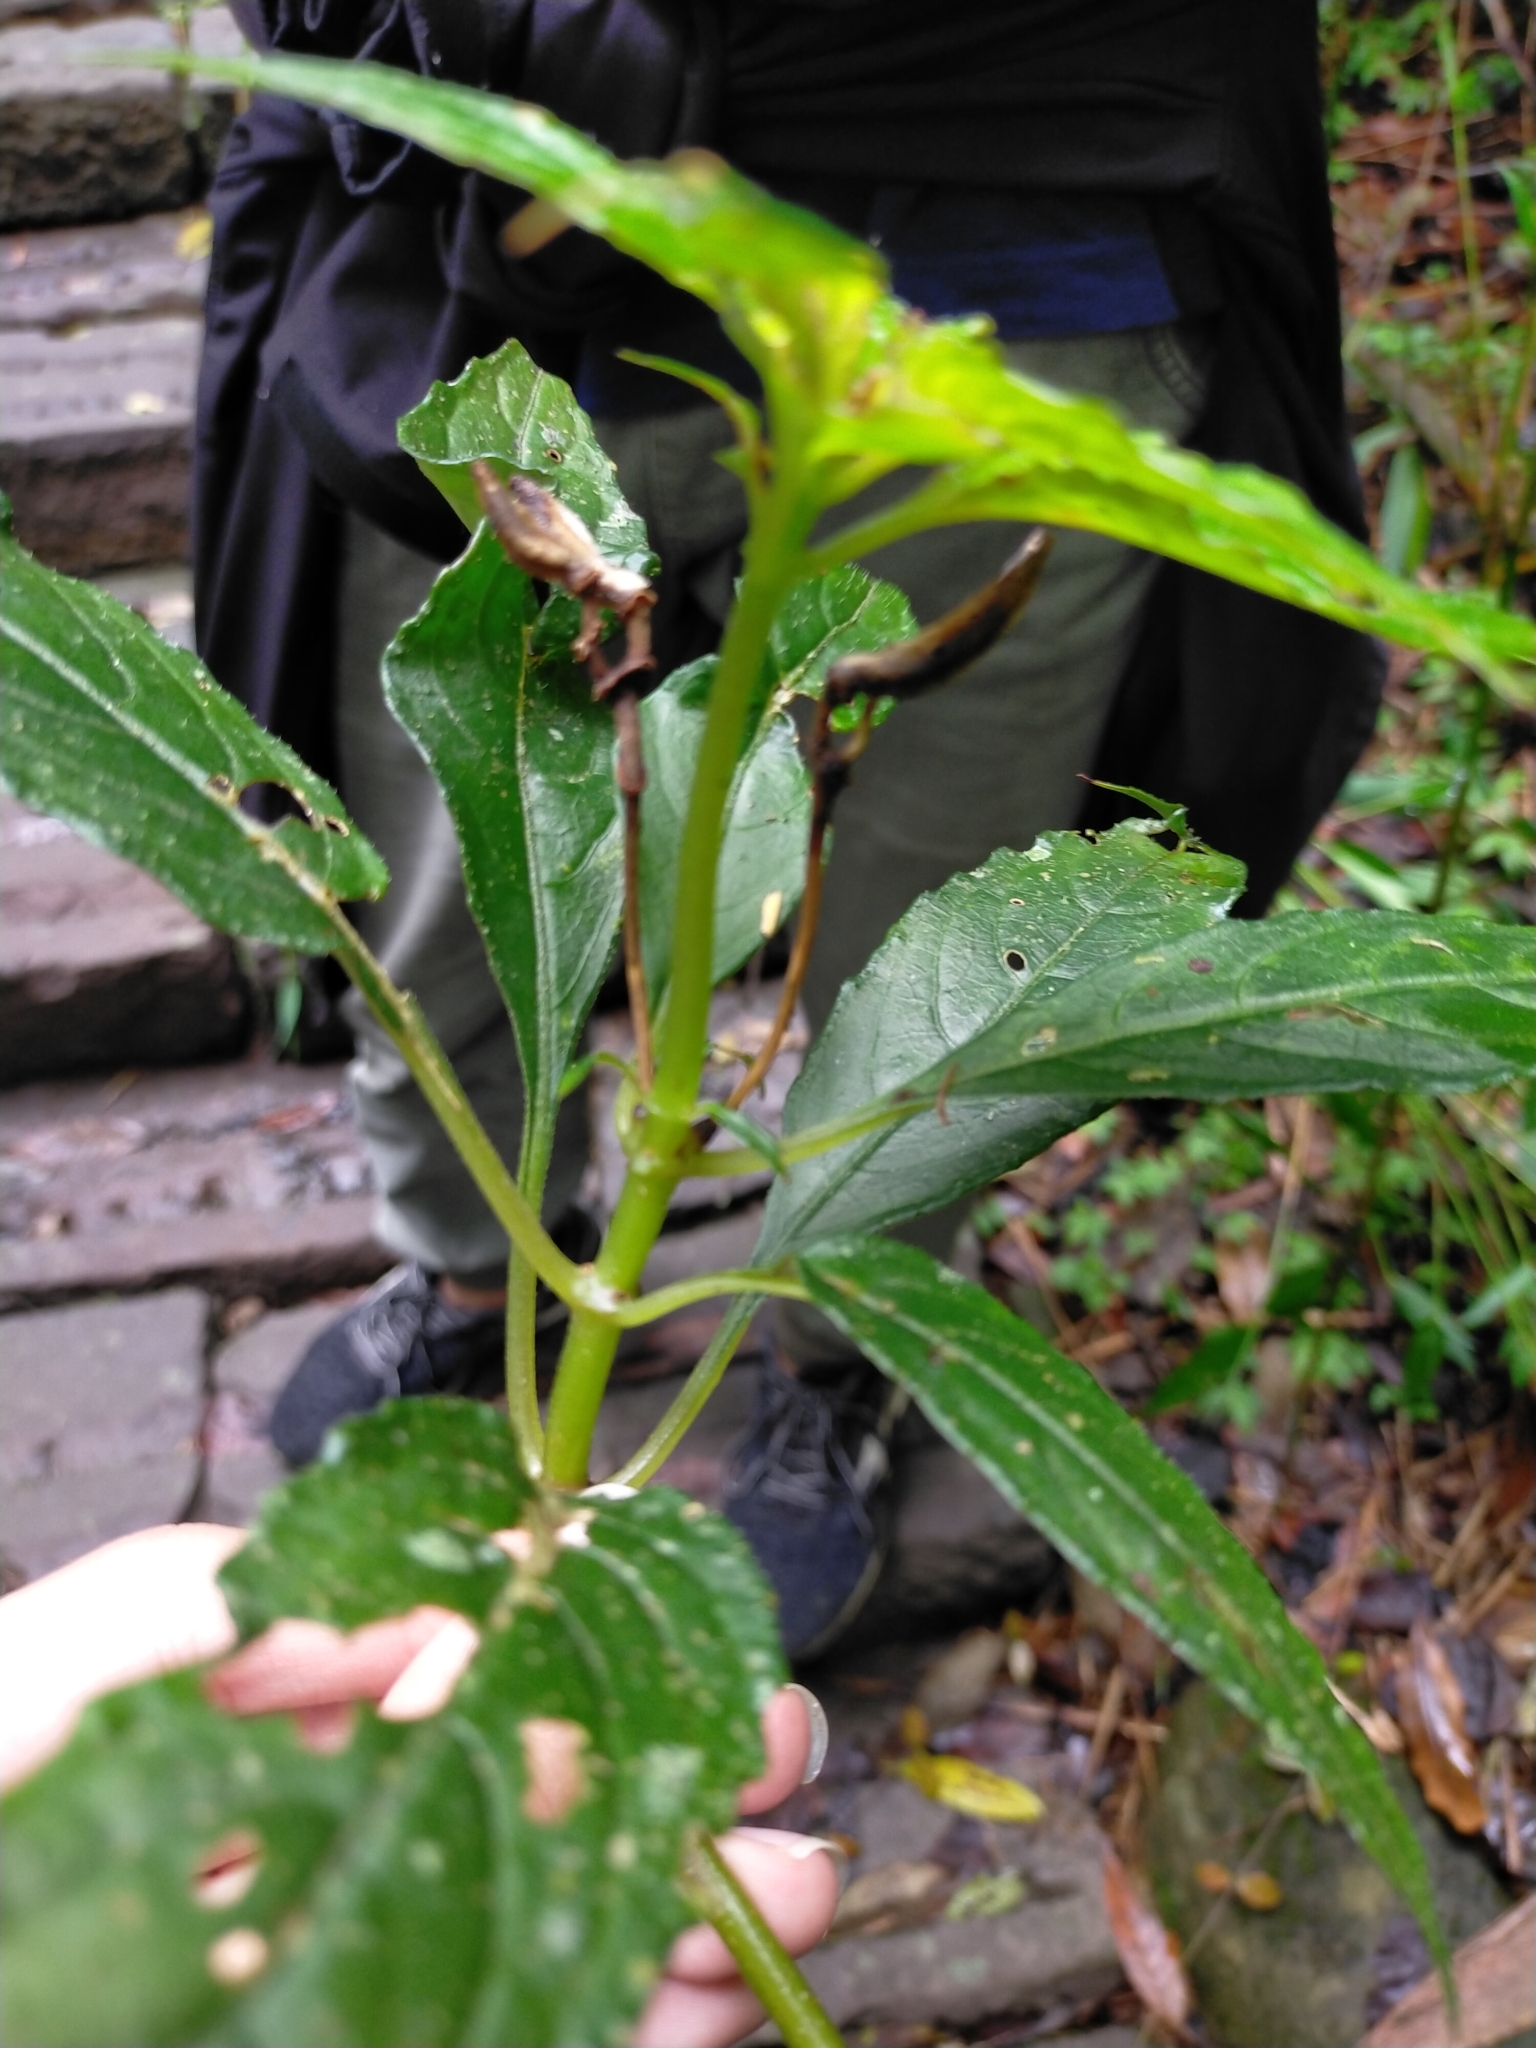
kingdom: Plantae
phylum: Tracheophyta
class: Magnoliopsida
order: Lamiales
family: Gesneriaceae
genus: Hemiboea
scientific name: Hemiboea bicornuta
